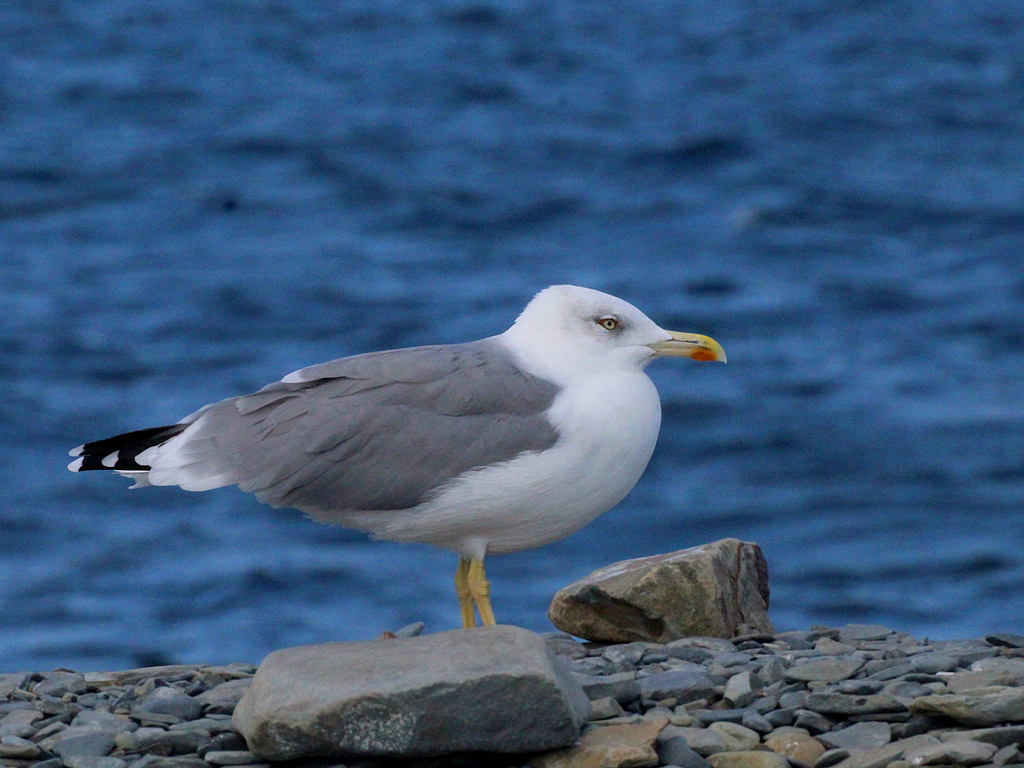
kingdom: Animalia
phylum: Chordata
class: Aves
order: Charadriiformes
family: Laridae
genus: Larus
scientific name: Larus michahellis
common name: Yellow-legged gull
